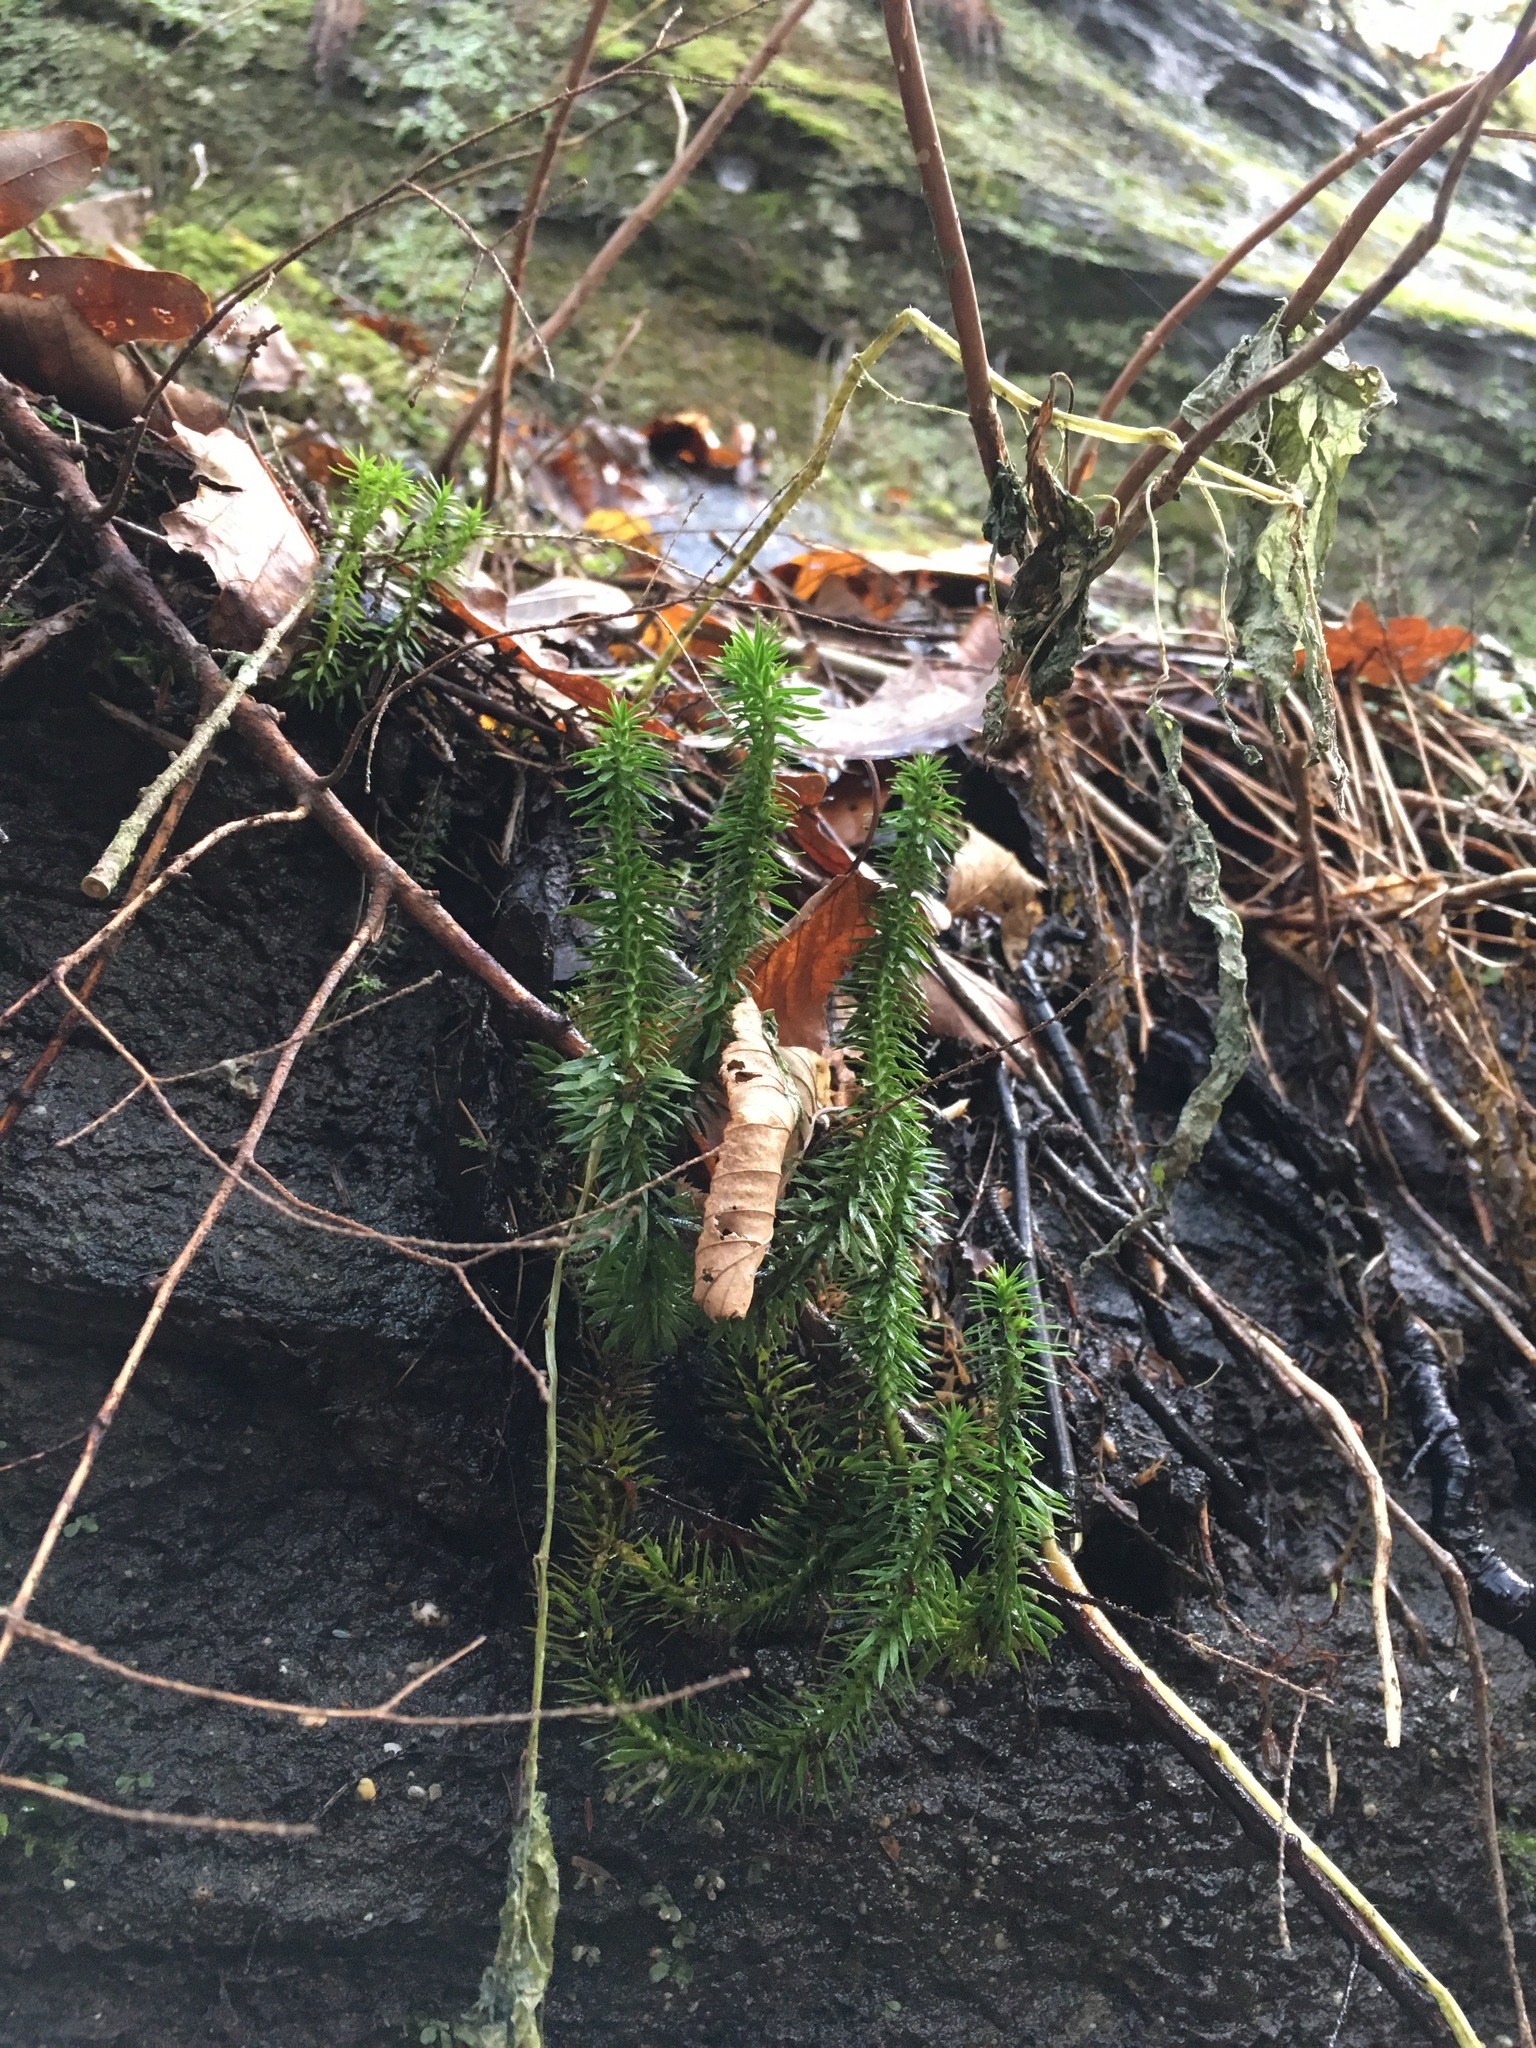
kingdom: Plantae
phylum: Tracheophyta
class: Lycopodiopsida
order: Lycopodiales
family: Lycopodiaceae
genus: Huperzia
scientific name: Huperzia lucidula
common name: Shining clubmoss
